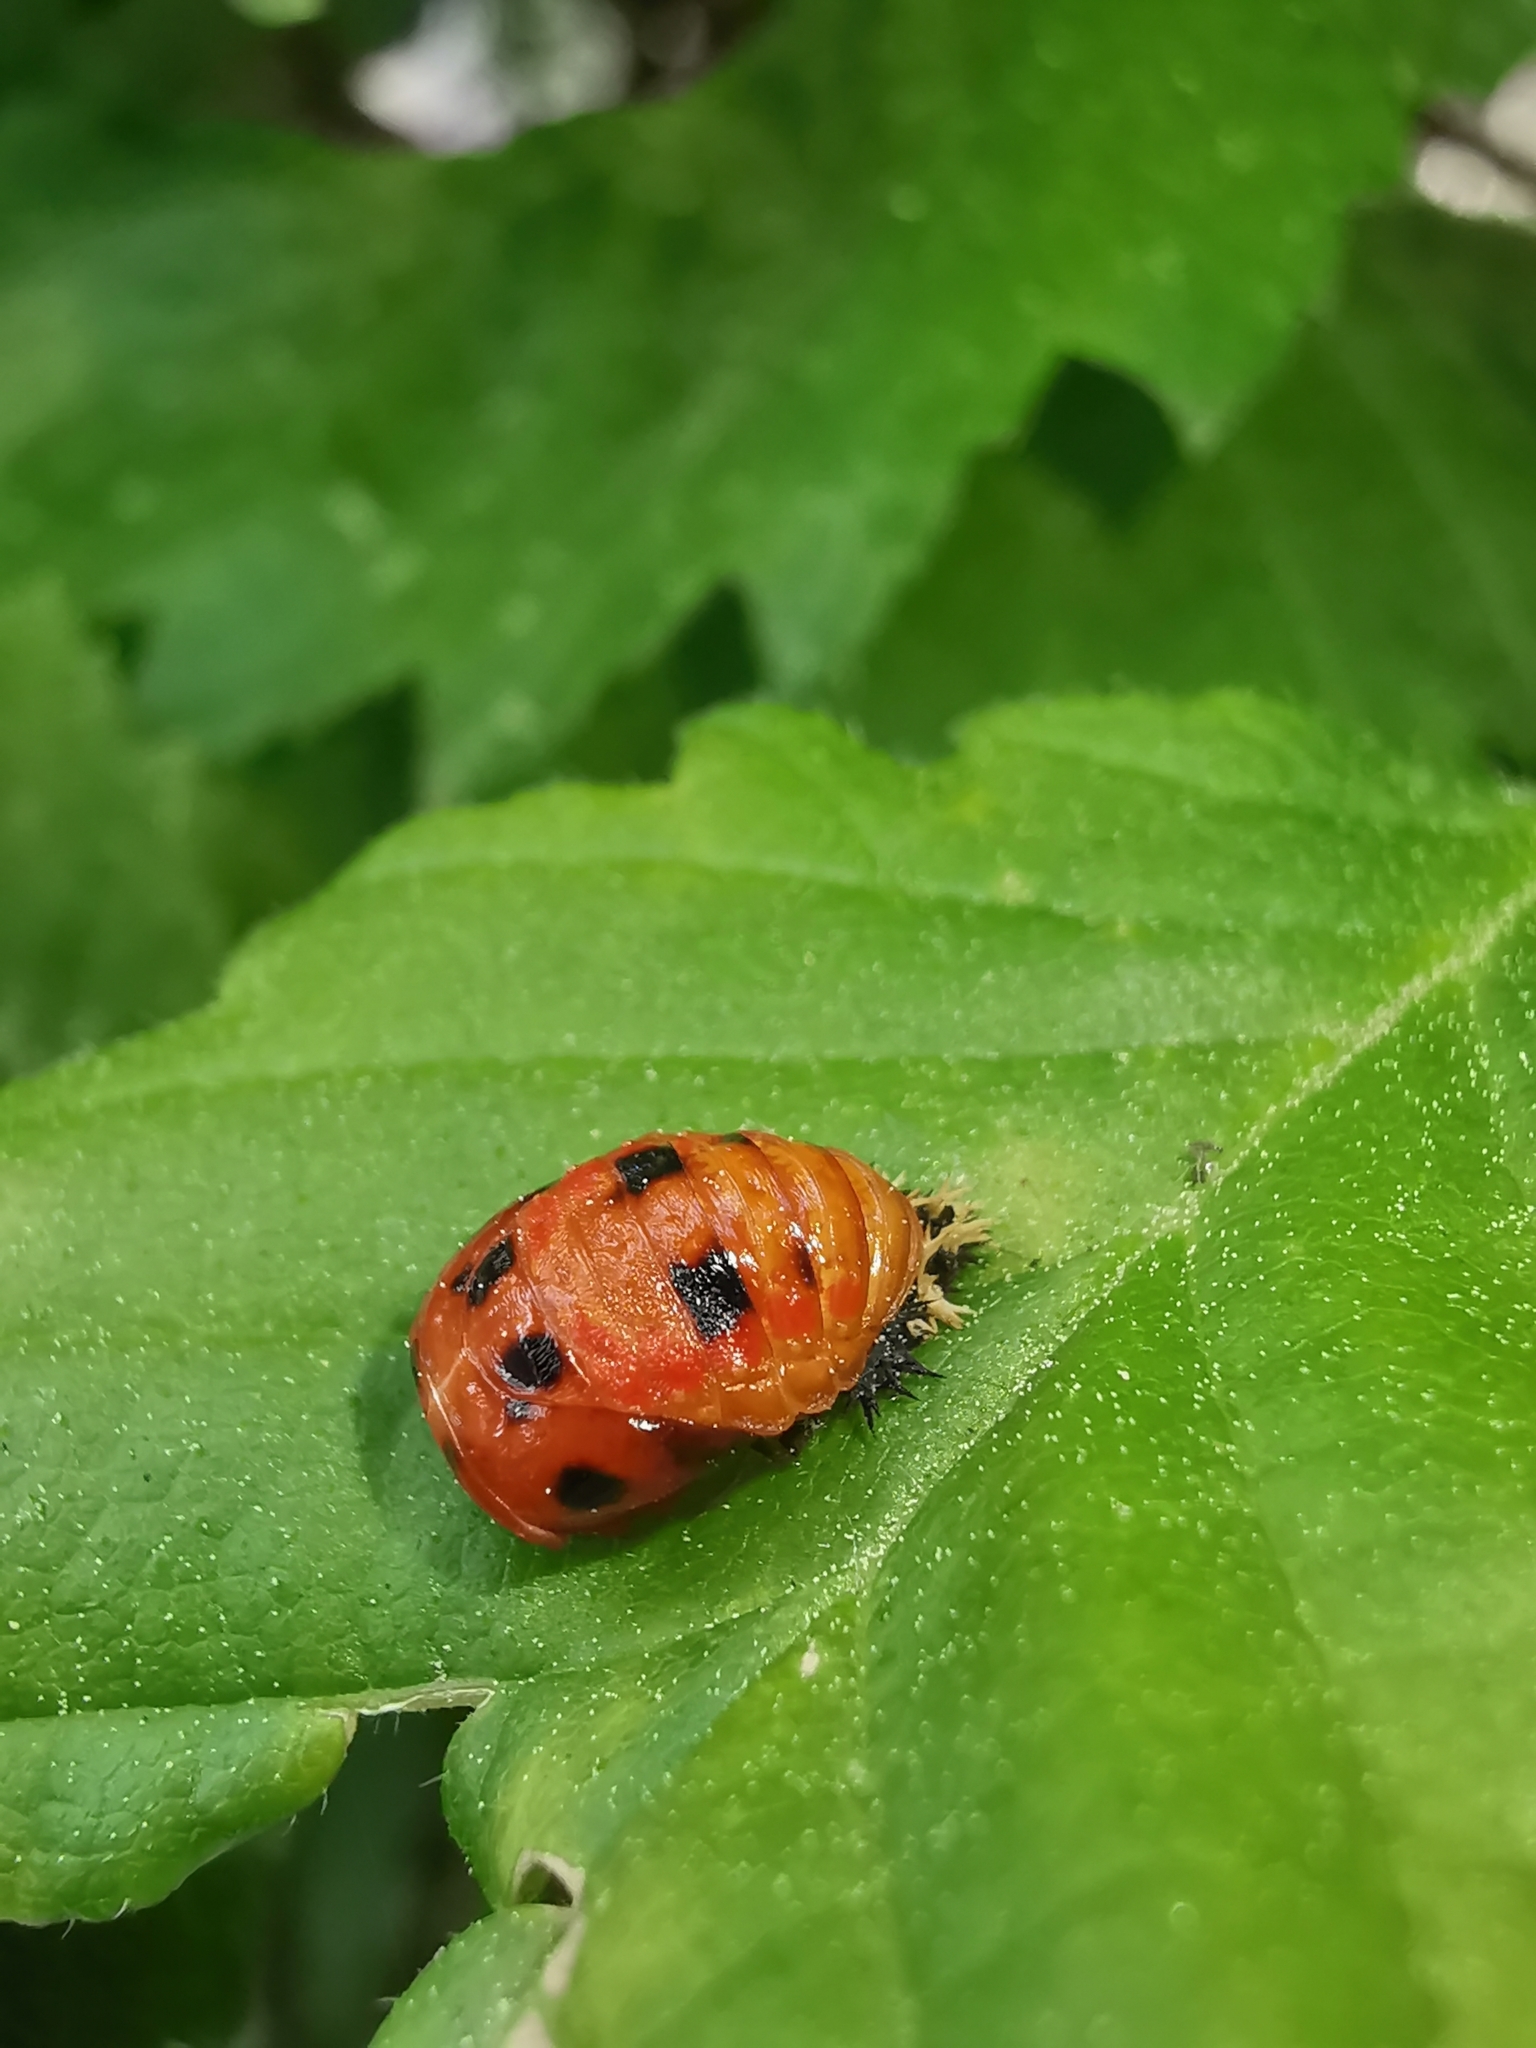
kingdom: Animalia
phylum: Arthropoda
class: Insecta
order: Coleoptera
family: Coccinellidae
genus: Harmonia
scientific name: Harmonia axyridis
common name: Harlequin ladybird
